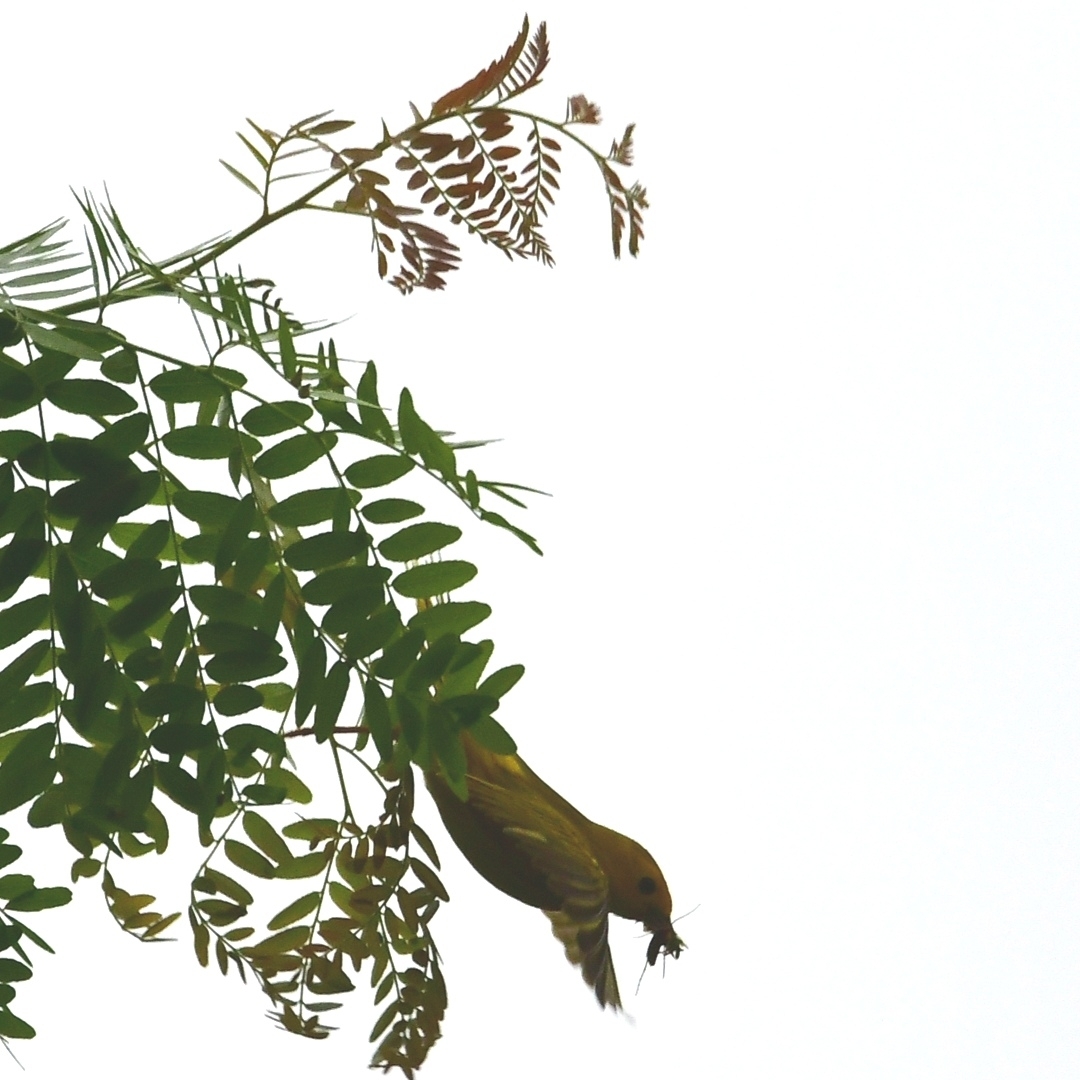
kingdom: Animalia
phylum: Chordata
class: Aves
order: Passeriformes
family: Parulidae
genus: Setophaga
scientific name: Setophaga petechia
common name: Yellow warbler
